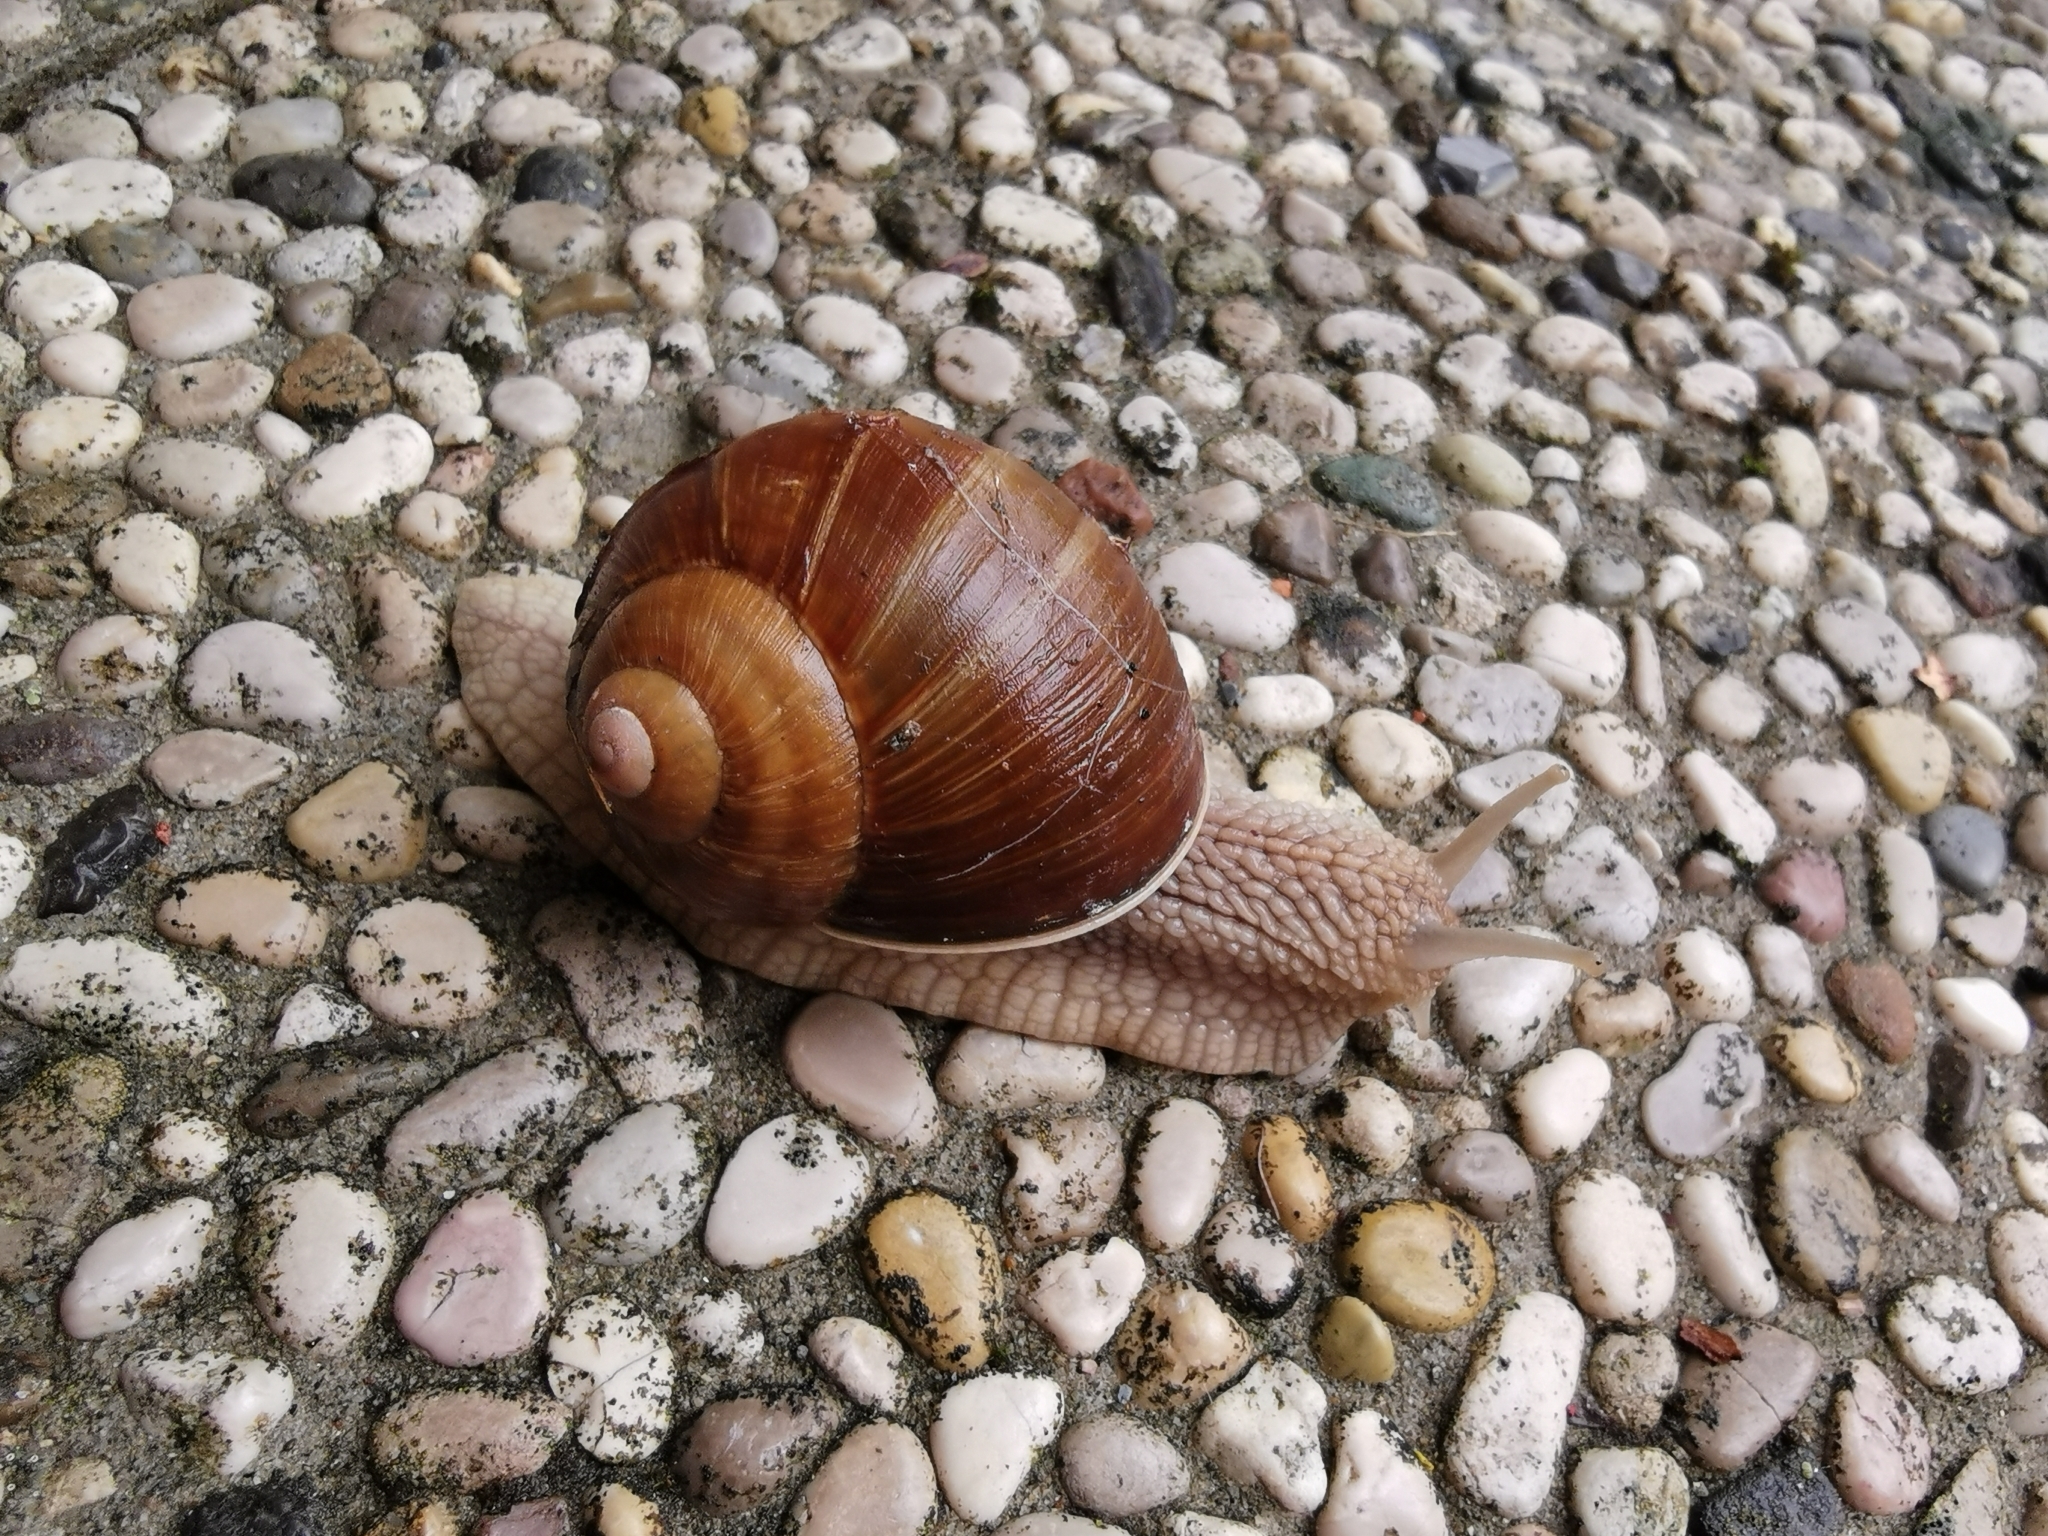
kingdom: Animalia
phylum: Mollusca
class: Gastropoda
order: Stylommatophora
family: Helicidae
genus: Helix
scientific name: Helix pomatia
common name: Roman snail
